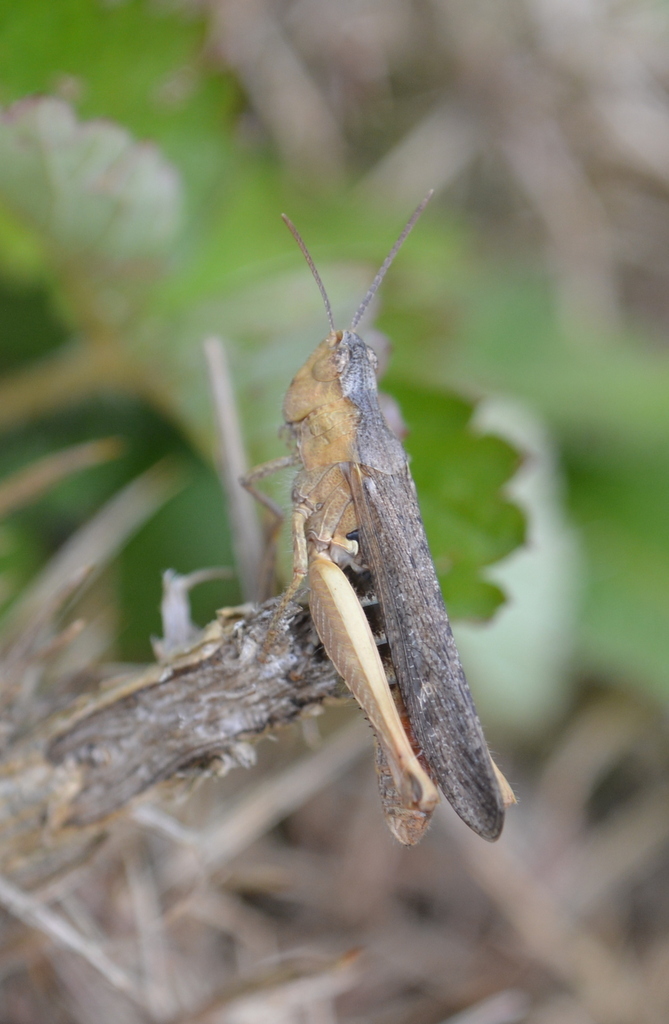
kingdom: Animalia
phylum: Arthropoda
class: Insecta
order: Orthoptera
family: Acrididae
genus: Chorthippus
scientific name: Chorthippus brunneus
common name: Field grasshopper
